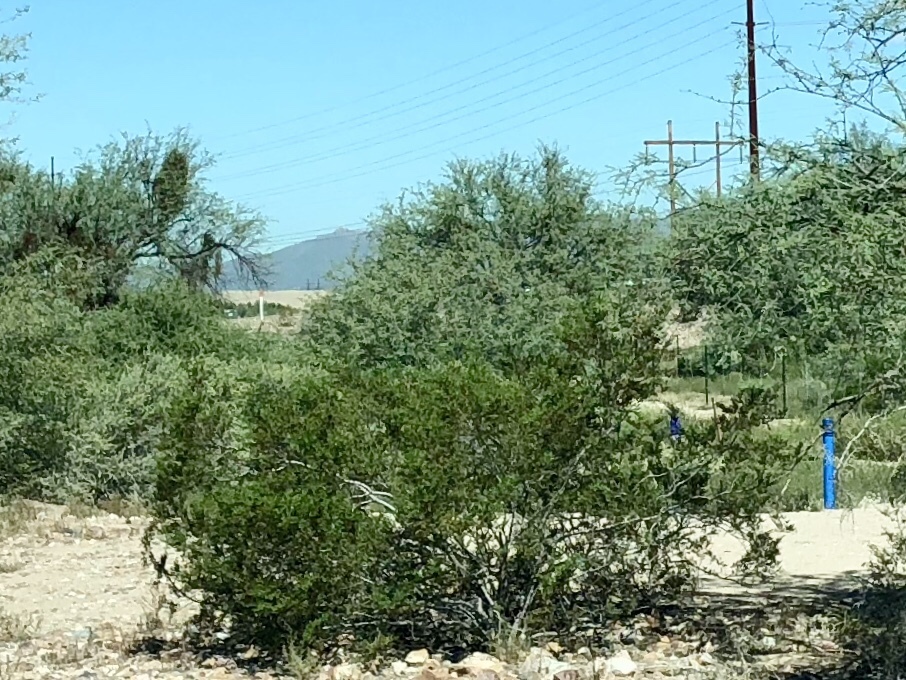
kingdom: Plantae
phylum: Tracheophyta
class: Magnoliopsida
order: Zygophyllales
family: Zygophyllaceae
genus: Larrea
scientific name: Larrea tridentata
